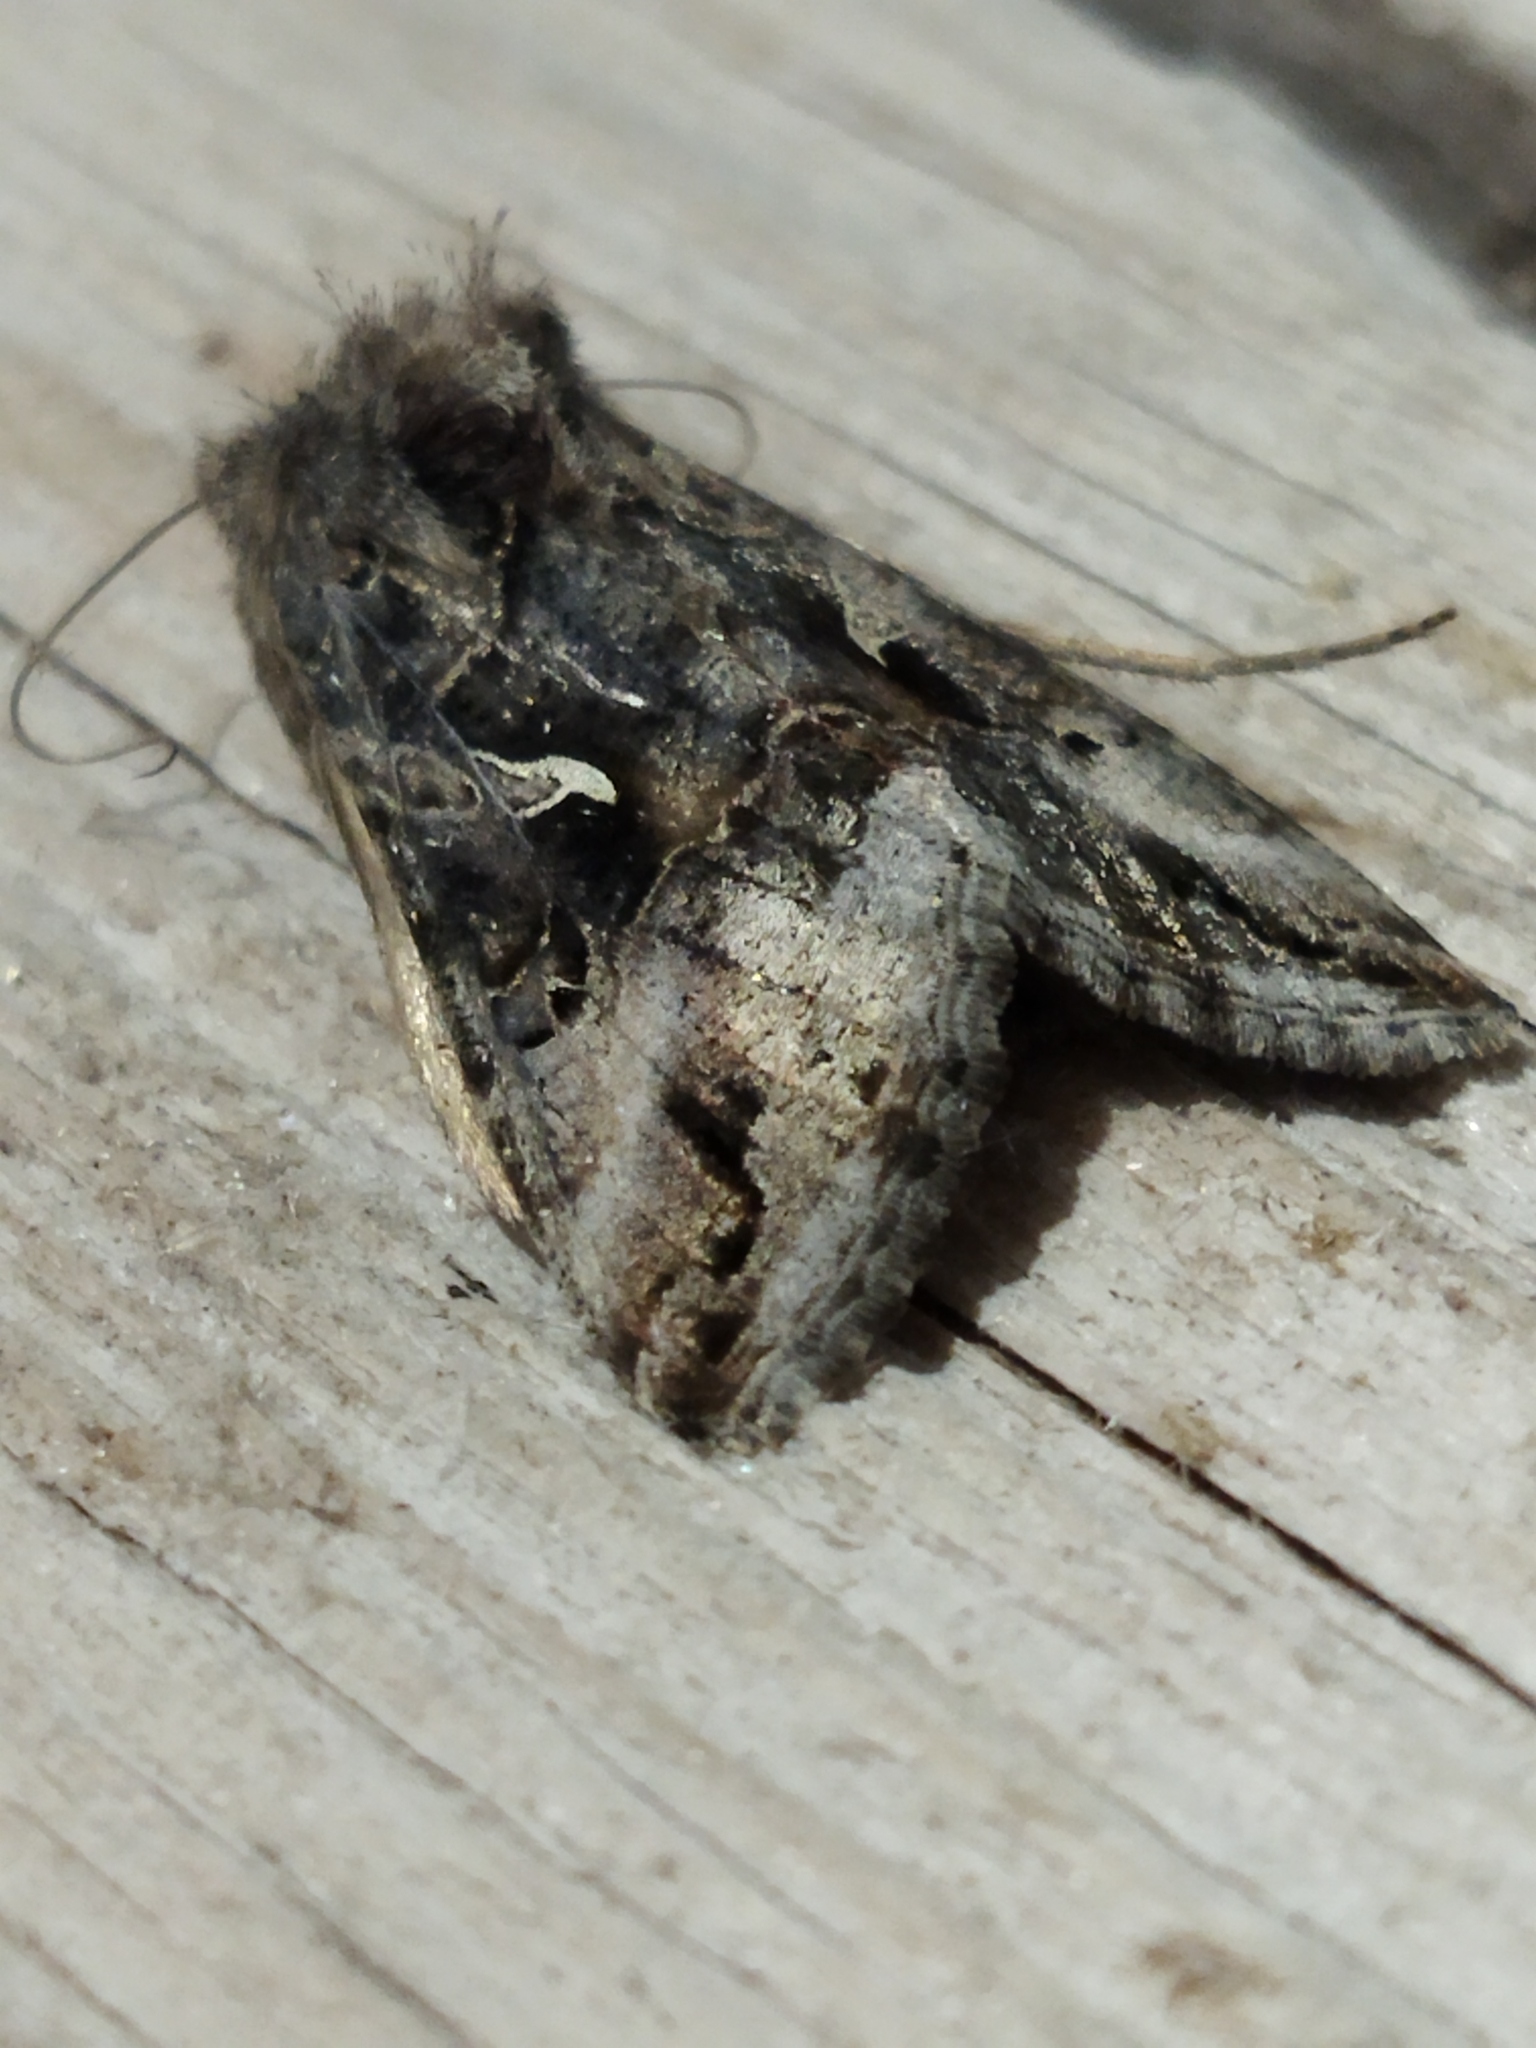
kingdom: Animalia
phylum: Arthropoda
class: Insecta
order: Lepidoptera
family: Noctuidae
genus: Autographa
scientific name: Autographa gamma
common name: Silver y
